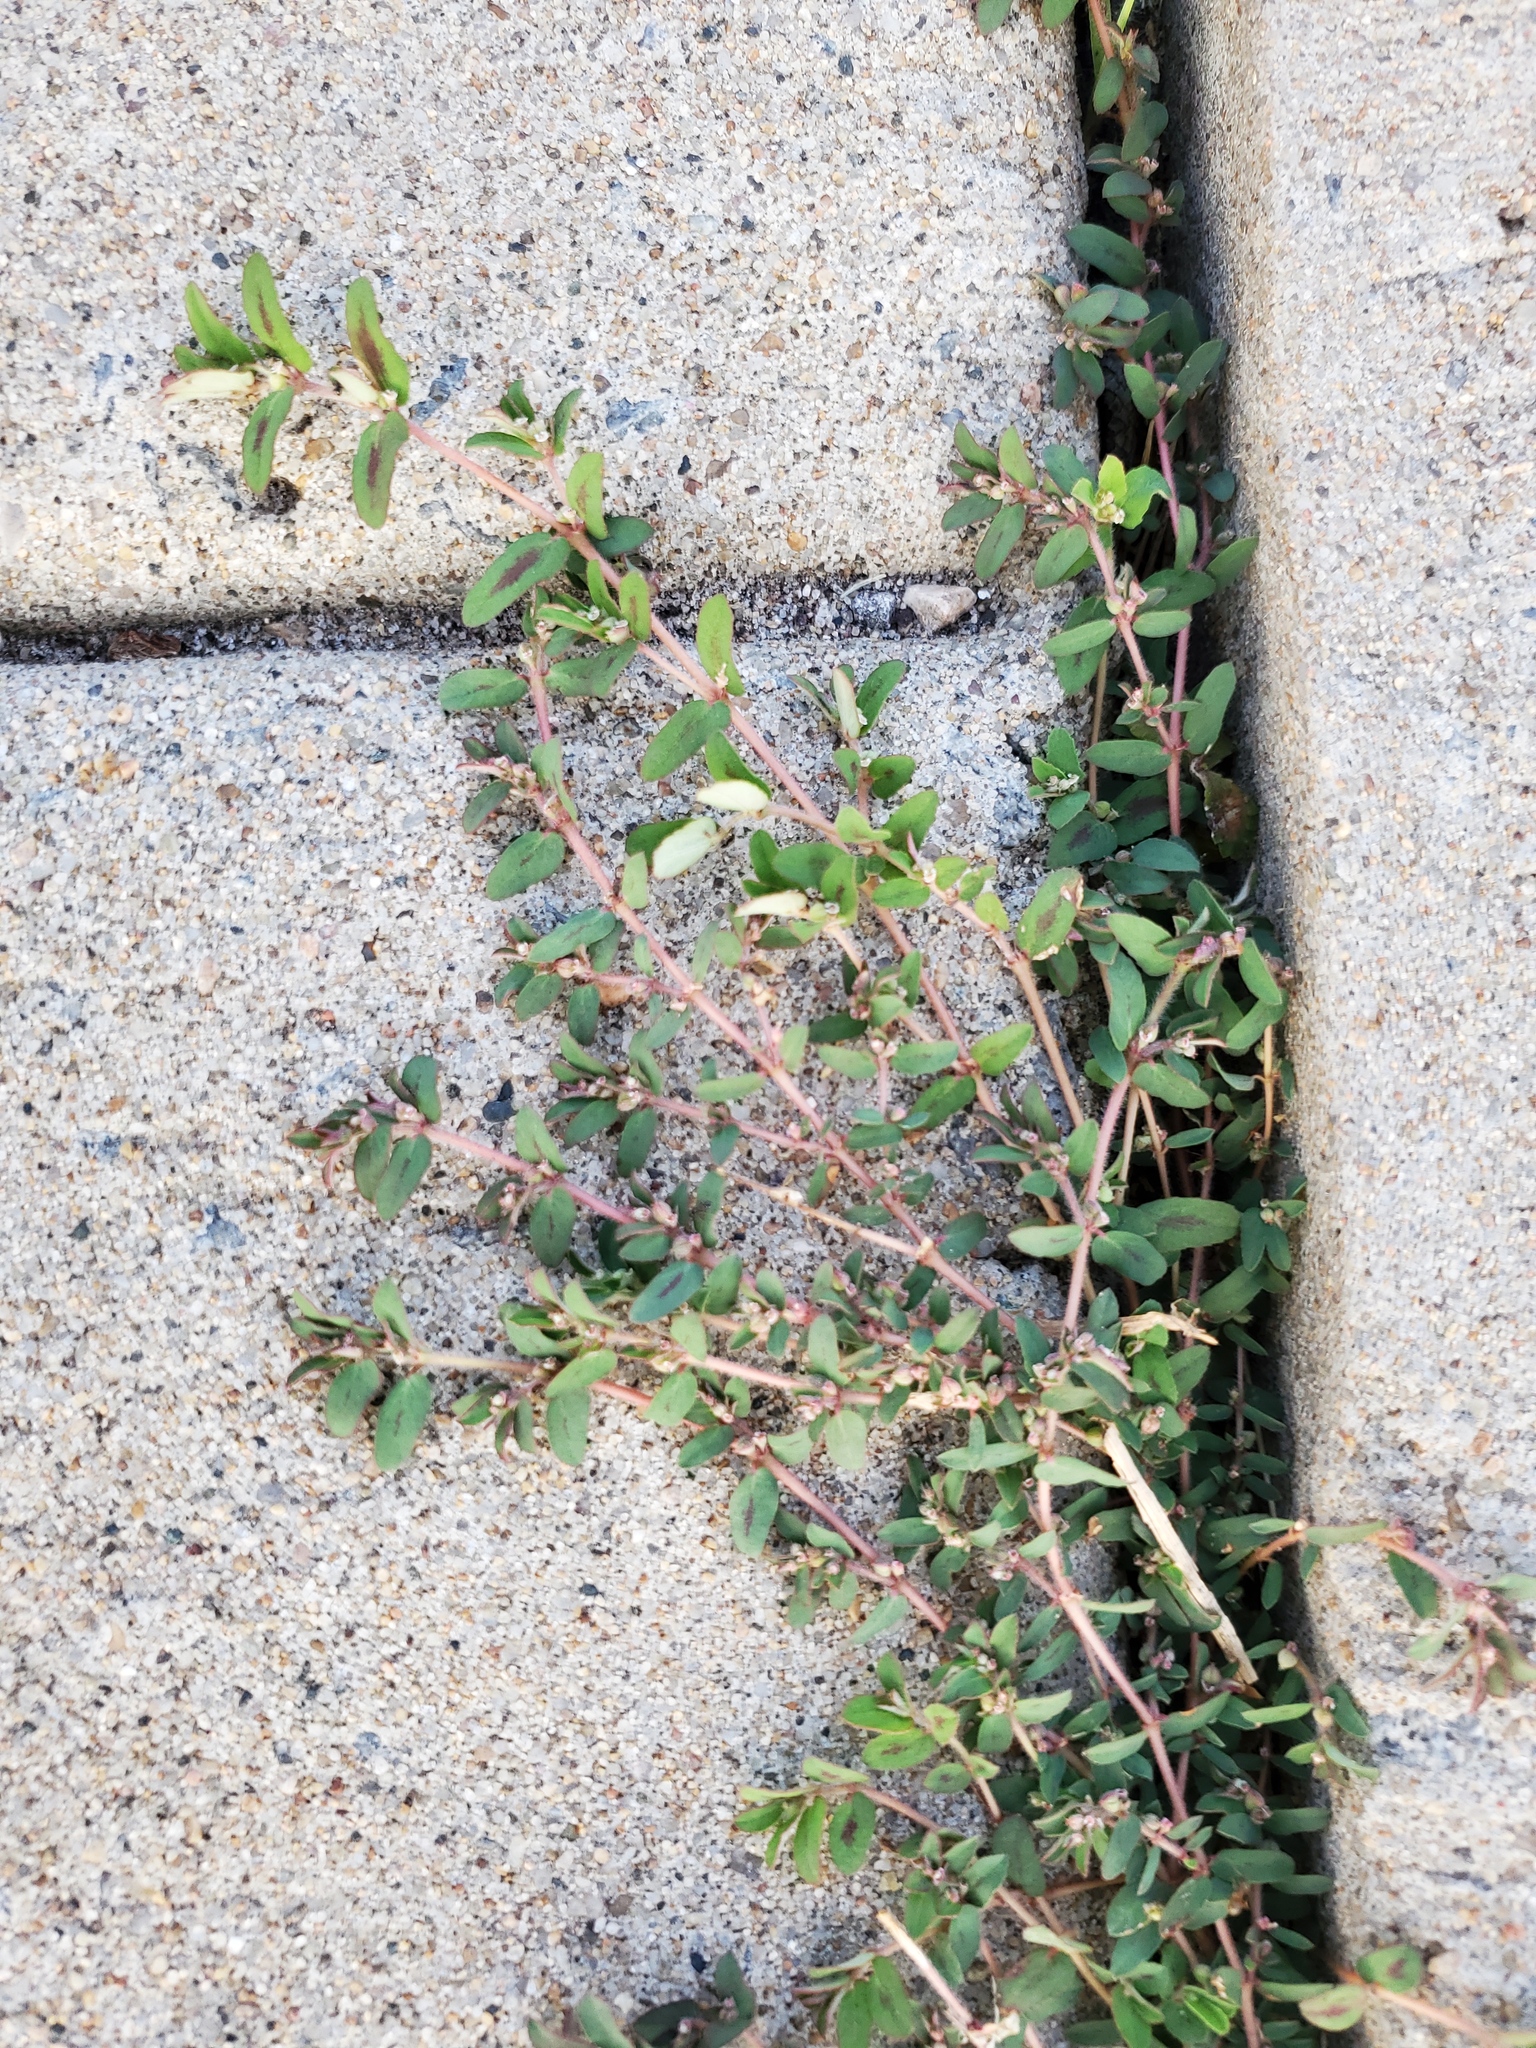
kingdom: Plantae
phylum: Tracheophyta
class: Magnoliopsida
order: Malpighiales
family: Euphorbiaceae
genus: Euphorbia
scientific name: Euphorbia maculata
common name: Spotted spurge
